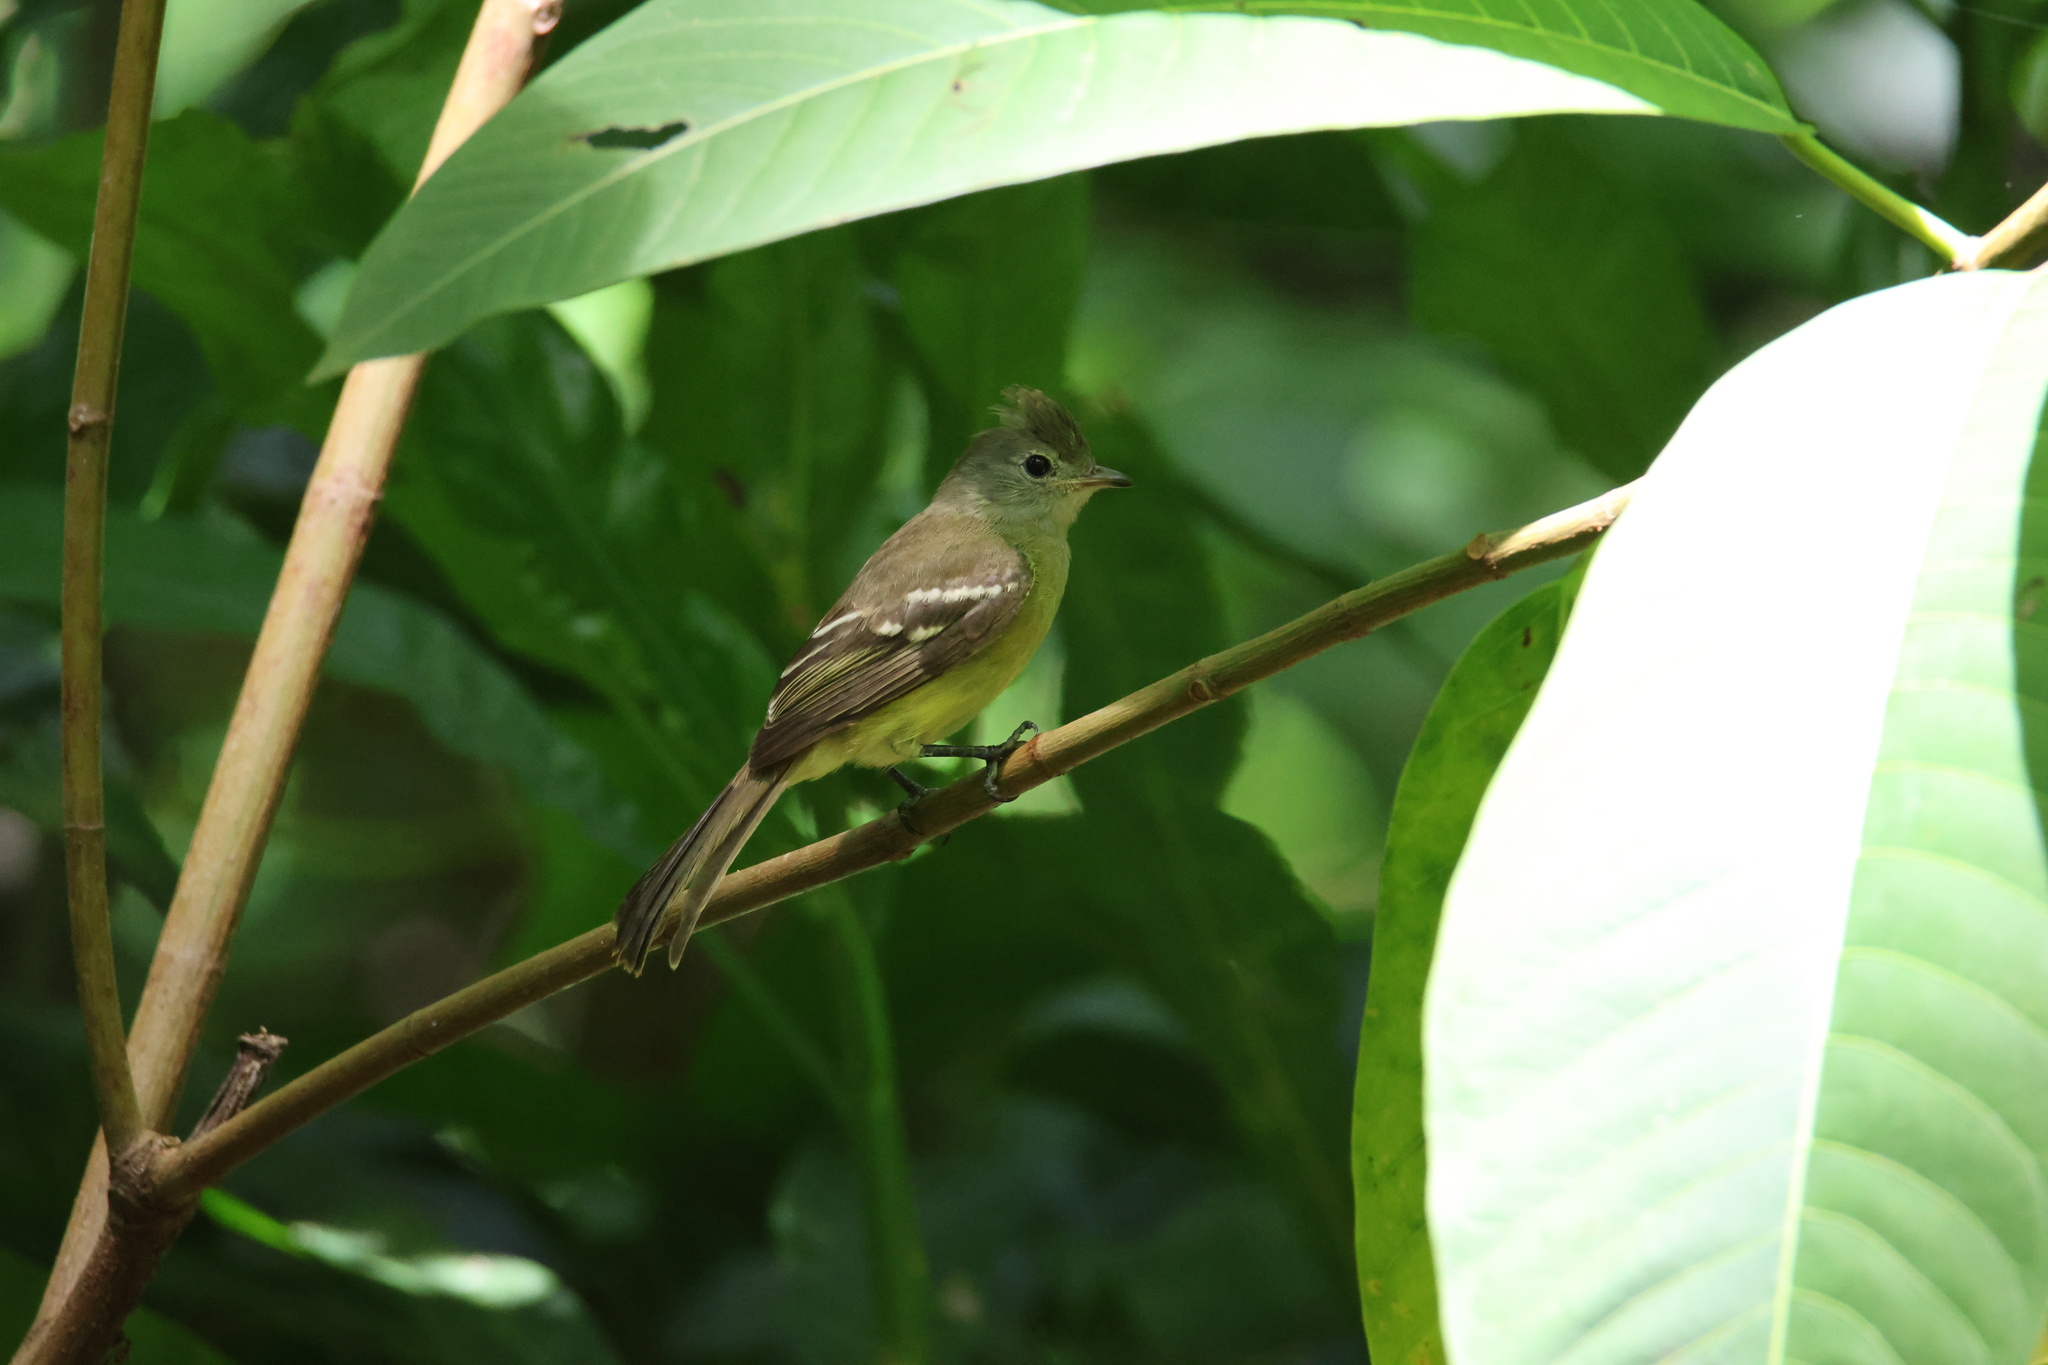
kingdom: Animalia
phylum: Chordata
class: Aves
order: Passeriformes
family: Tyrannidae
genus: Elaenia
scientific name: Elaenia flavogaster
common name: Yellow-bellied elaenia
